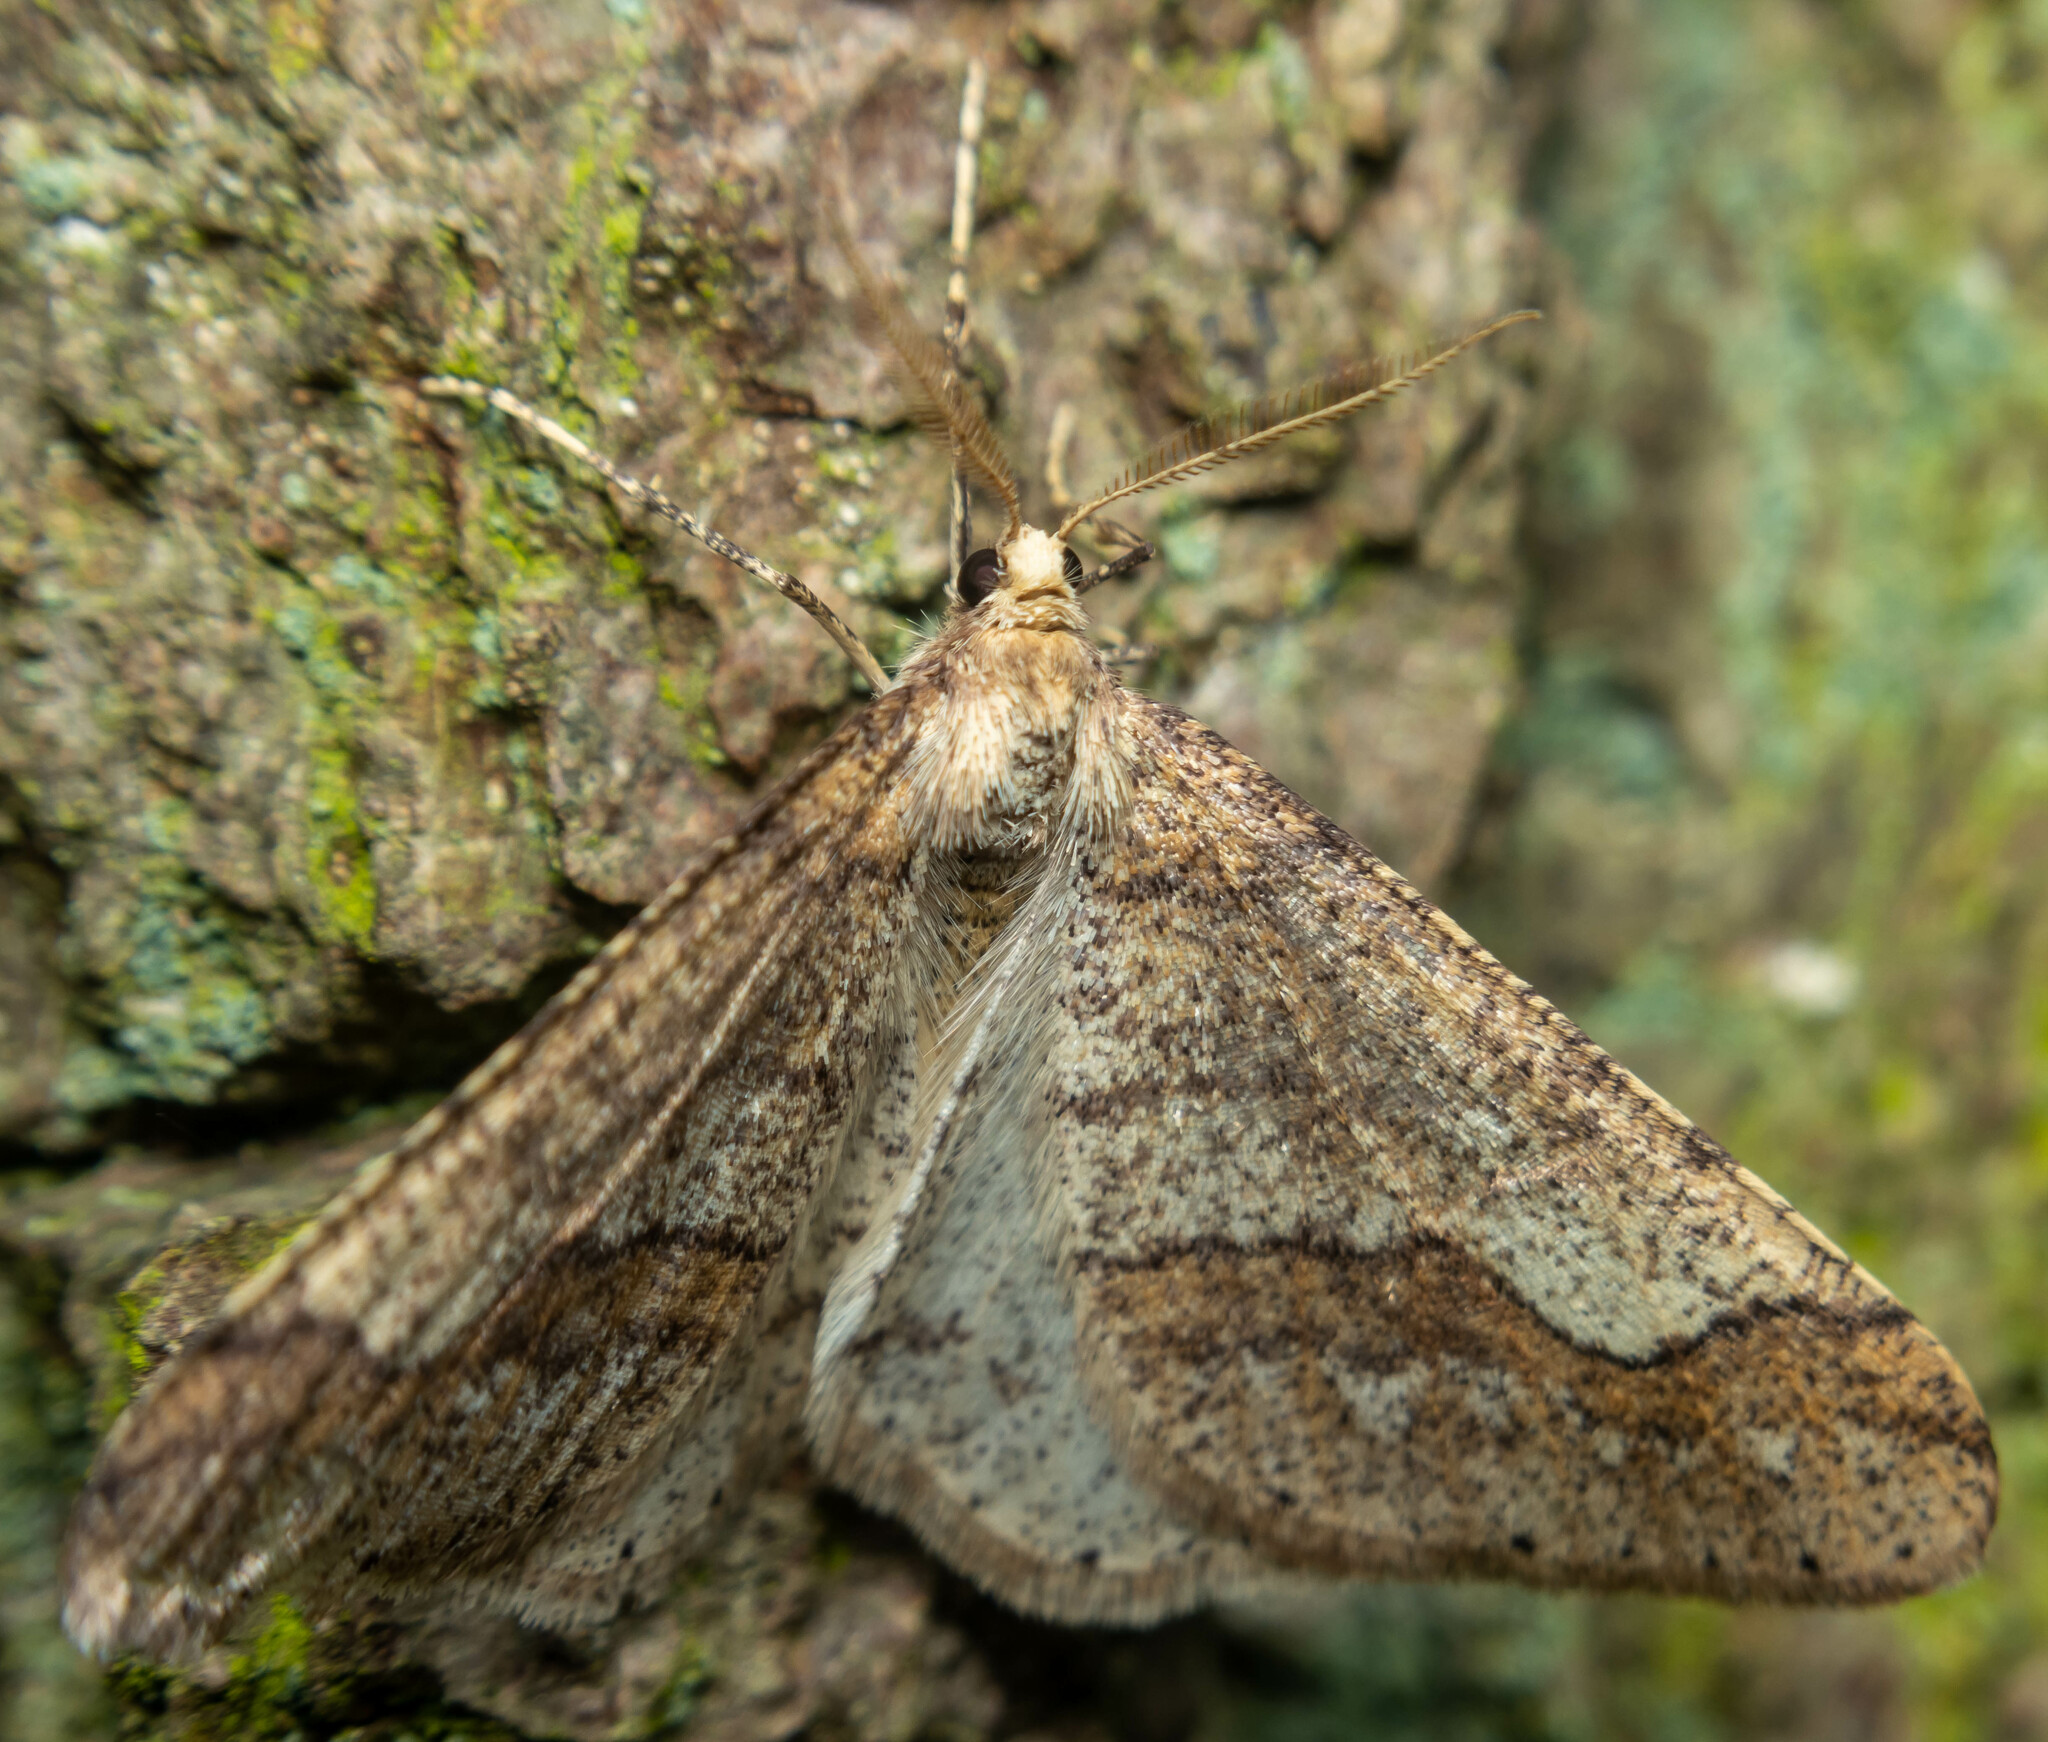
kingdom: Animalia
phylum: Arthropoda
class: Insecta
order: Lepidoptera
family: Geometridae
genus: Agriopis
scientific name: Agriopis marginaria
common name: Dotted border
